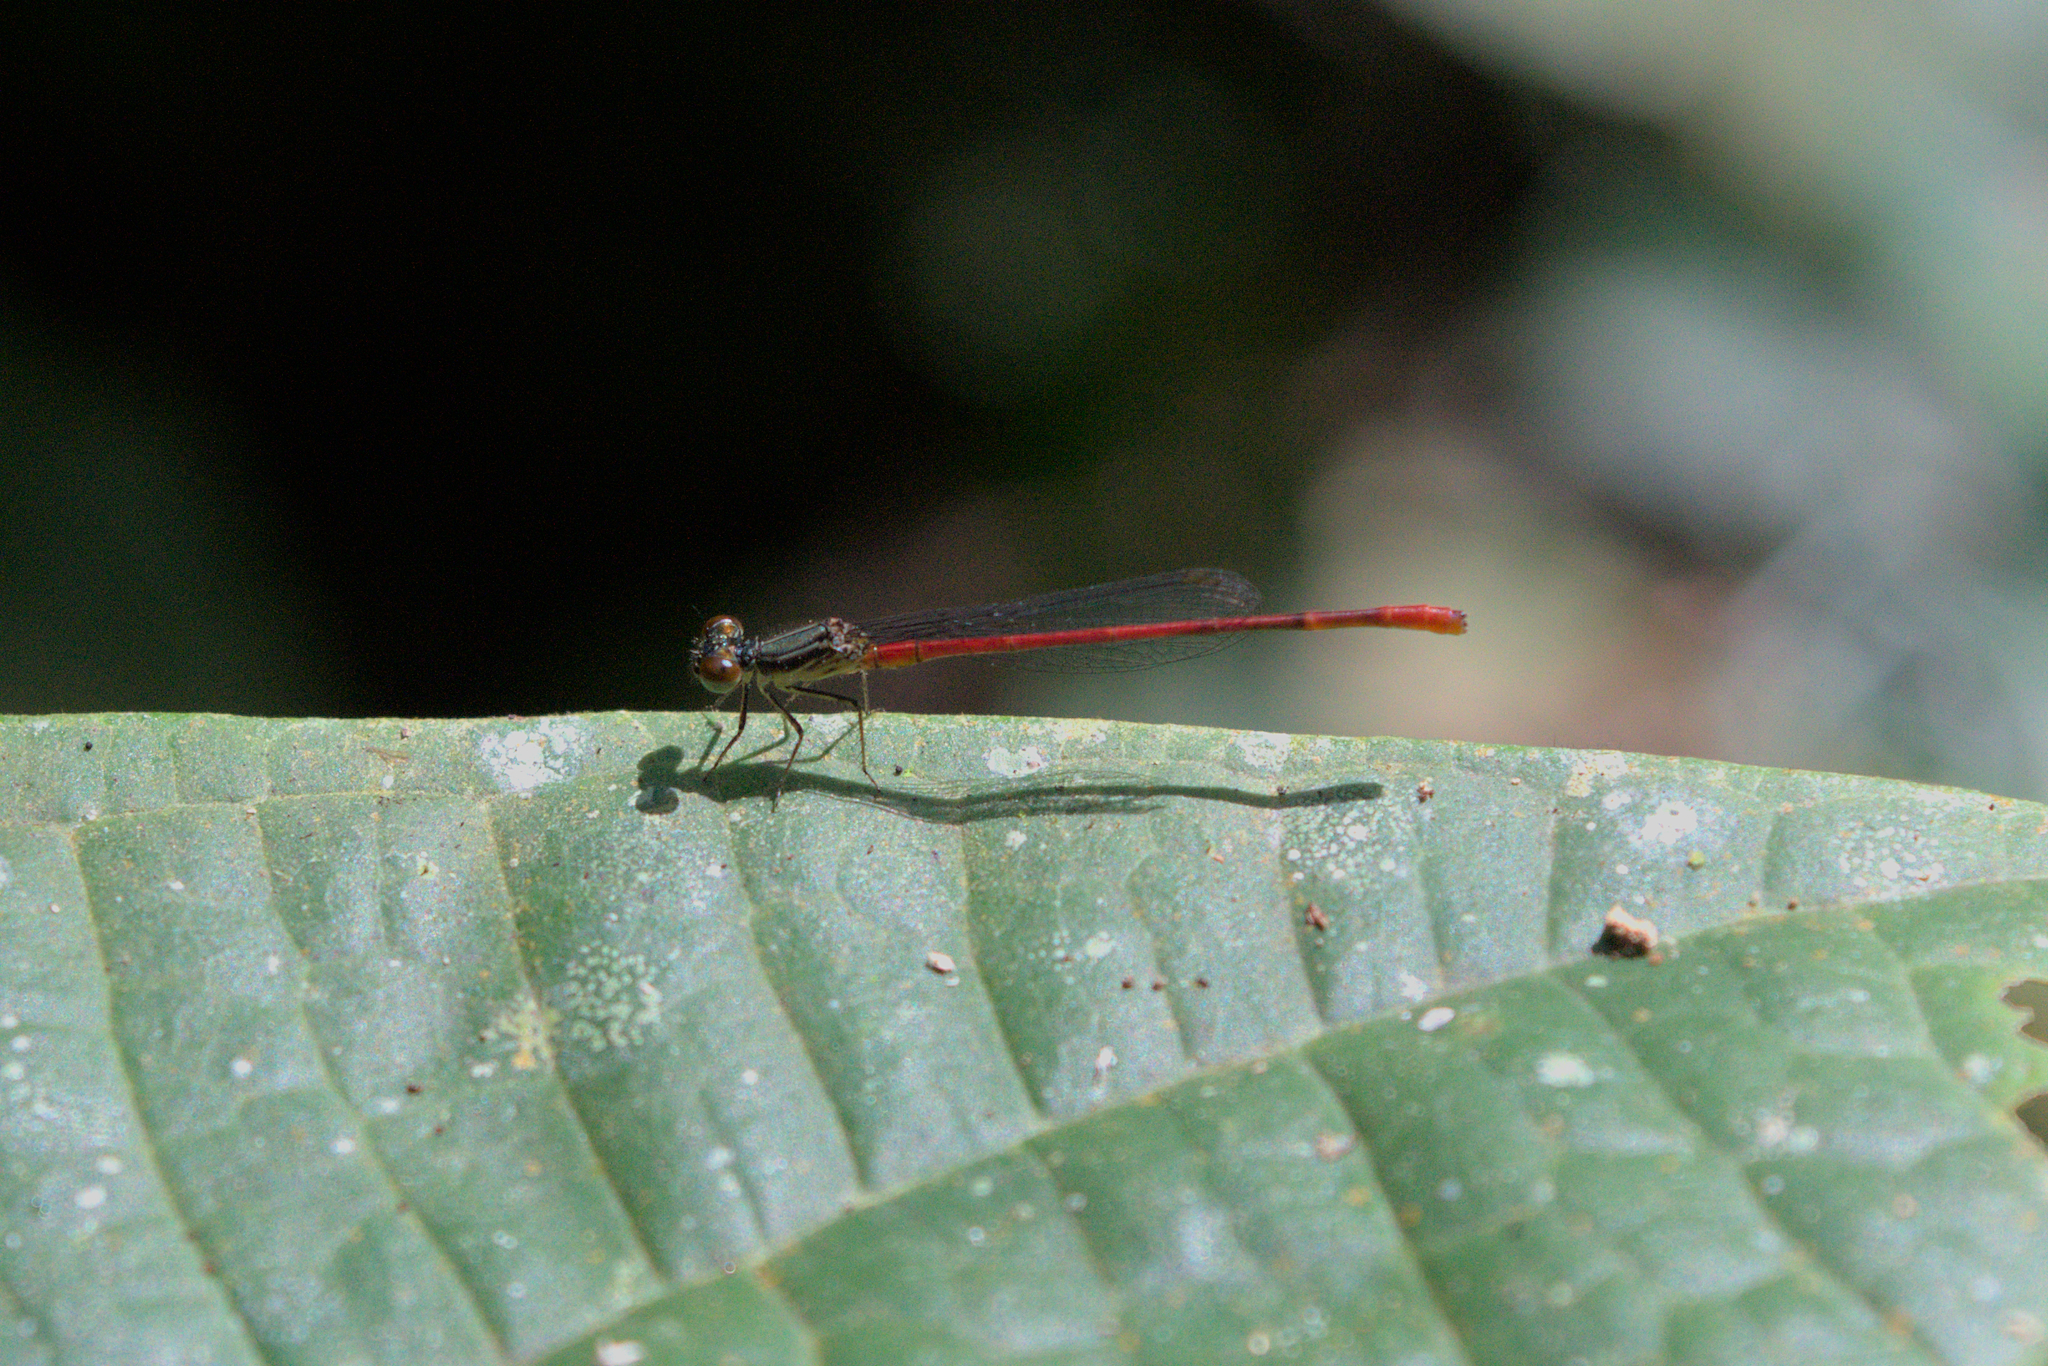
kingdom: Animalia
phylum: Arthropoda
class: Insecta
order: Odonata
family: Coenagrionidae
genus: Telebasis
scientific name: Telebasis digiticollis
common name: Marsh firetail
